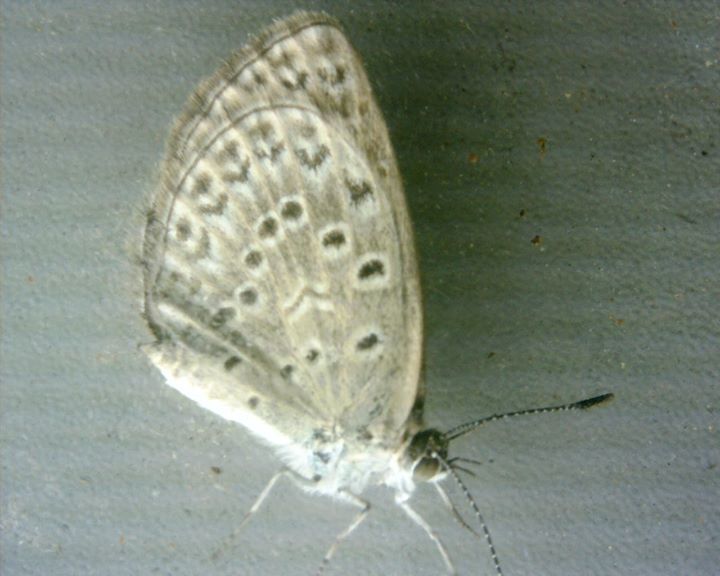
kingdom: Animalia
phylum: Arthropoda
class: Insecta
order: Lepidoptera
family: Lycaenidae
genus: Pseudozizeeria
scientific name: Pseudozizeeria maha
